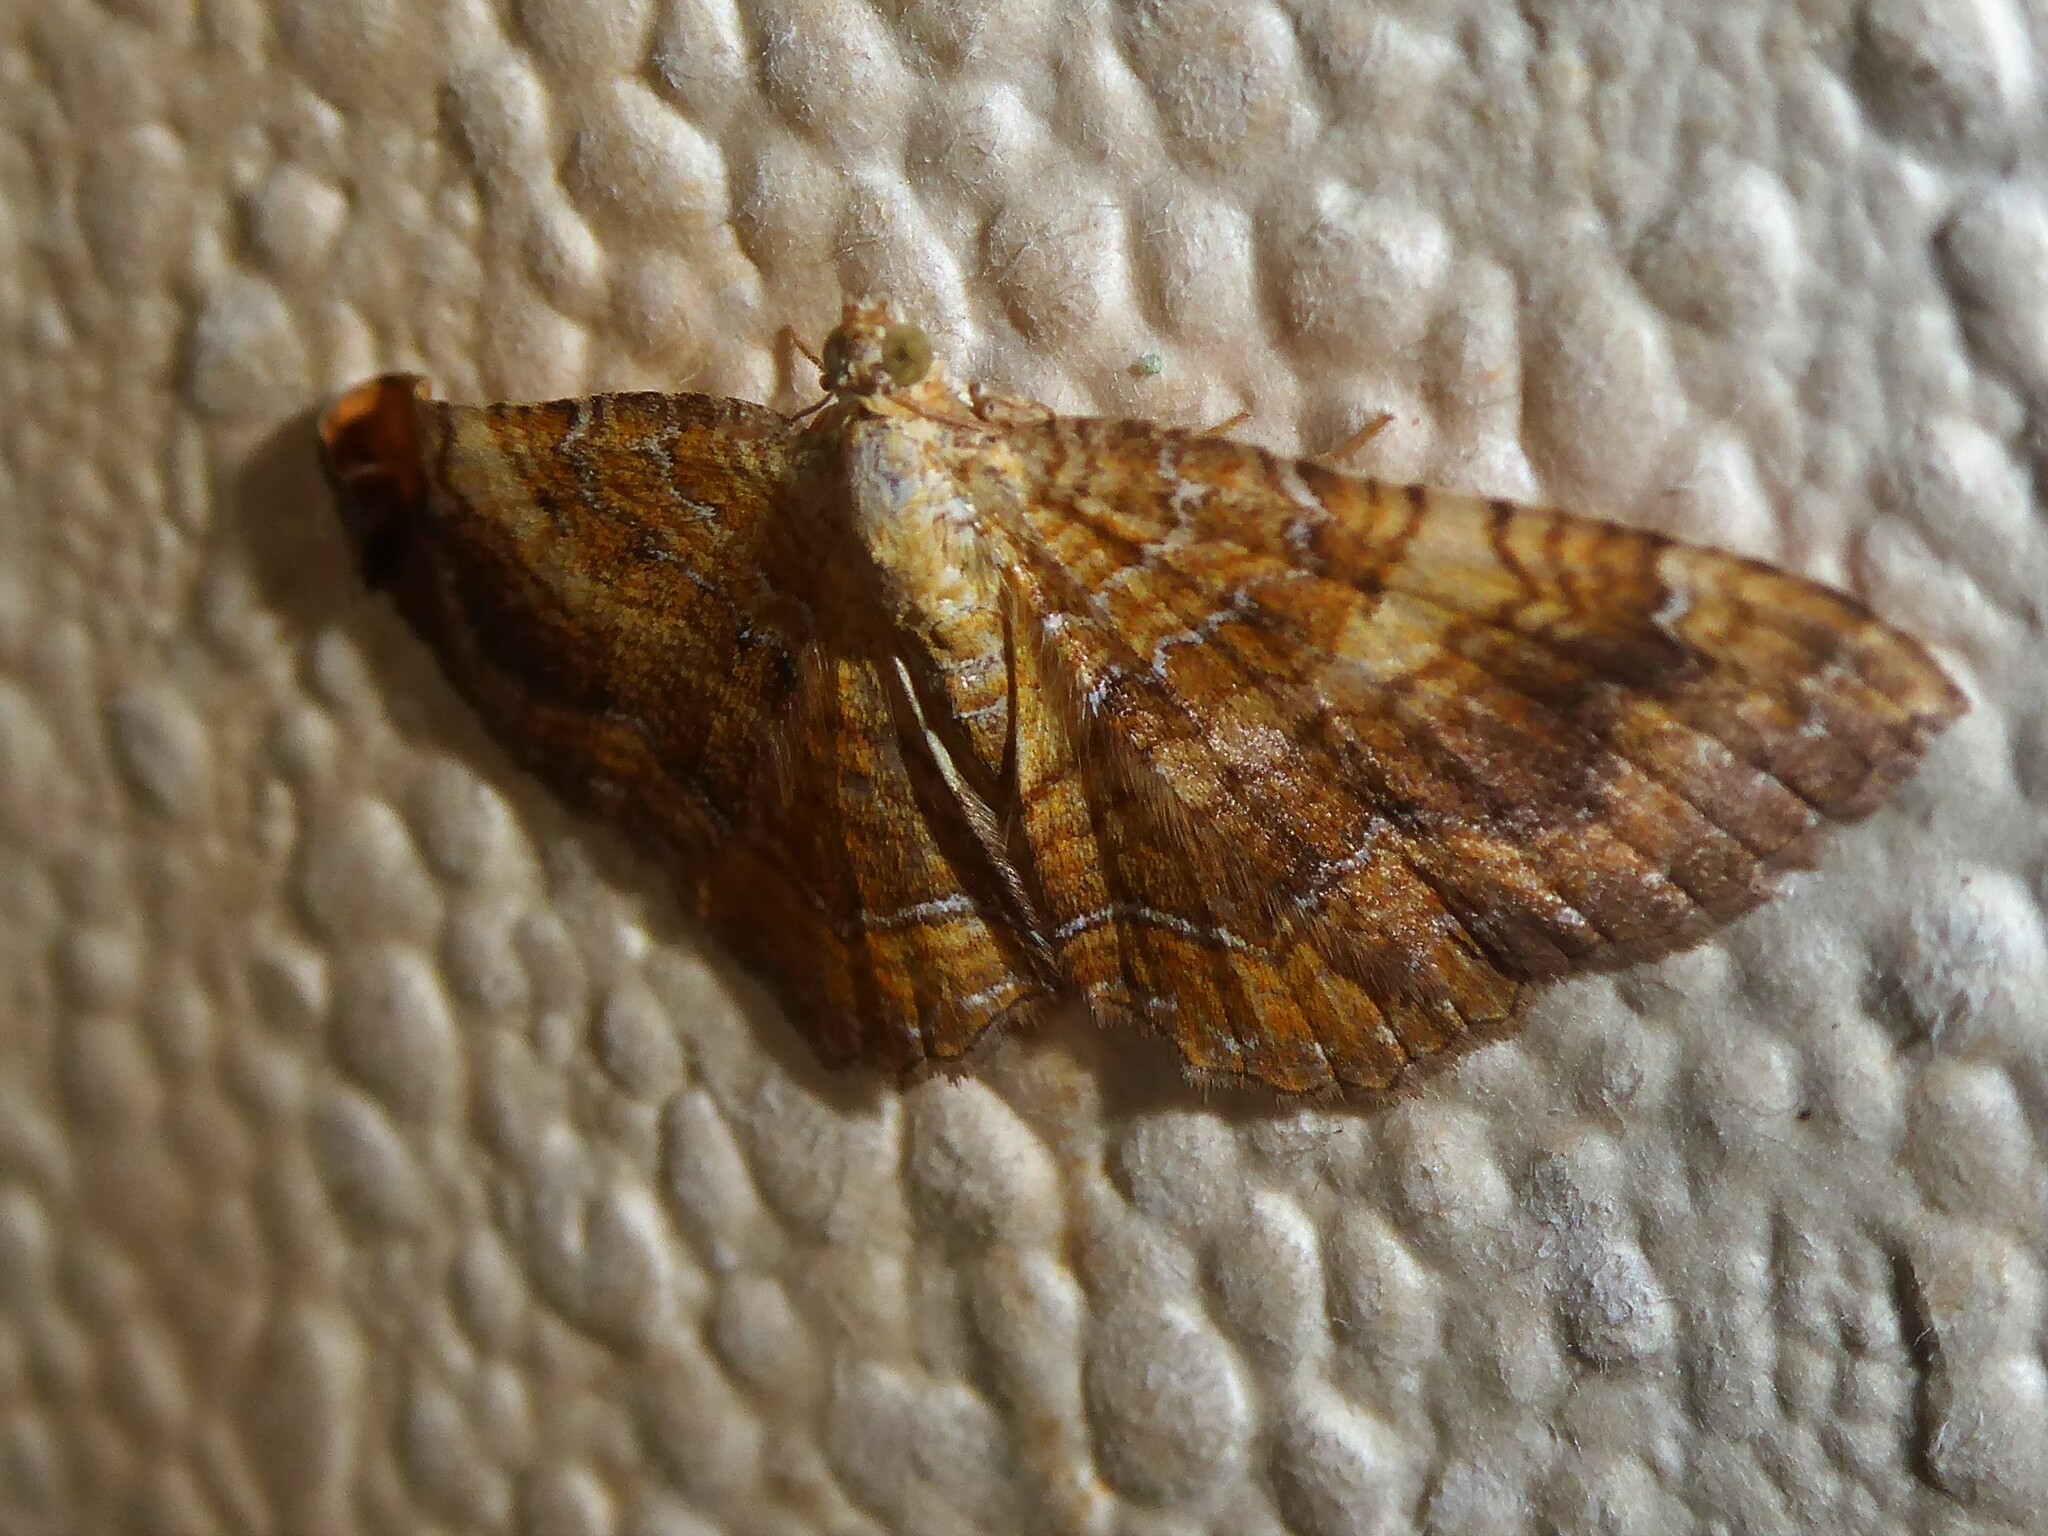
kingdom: Animalia
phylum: Arthropoda
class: Insecta
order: Lepidoptera
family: Geometridae
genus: Camptogramma
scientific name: Camptogramma bilineata
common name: Yellow shell
